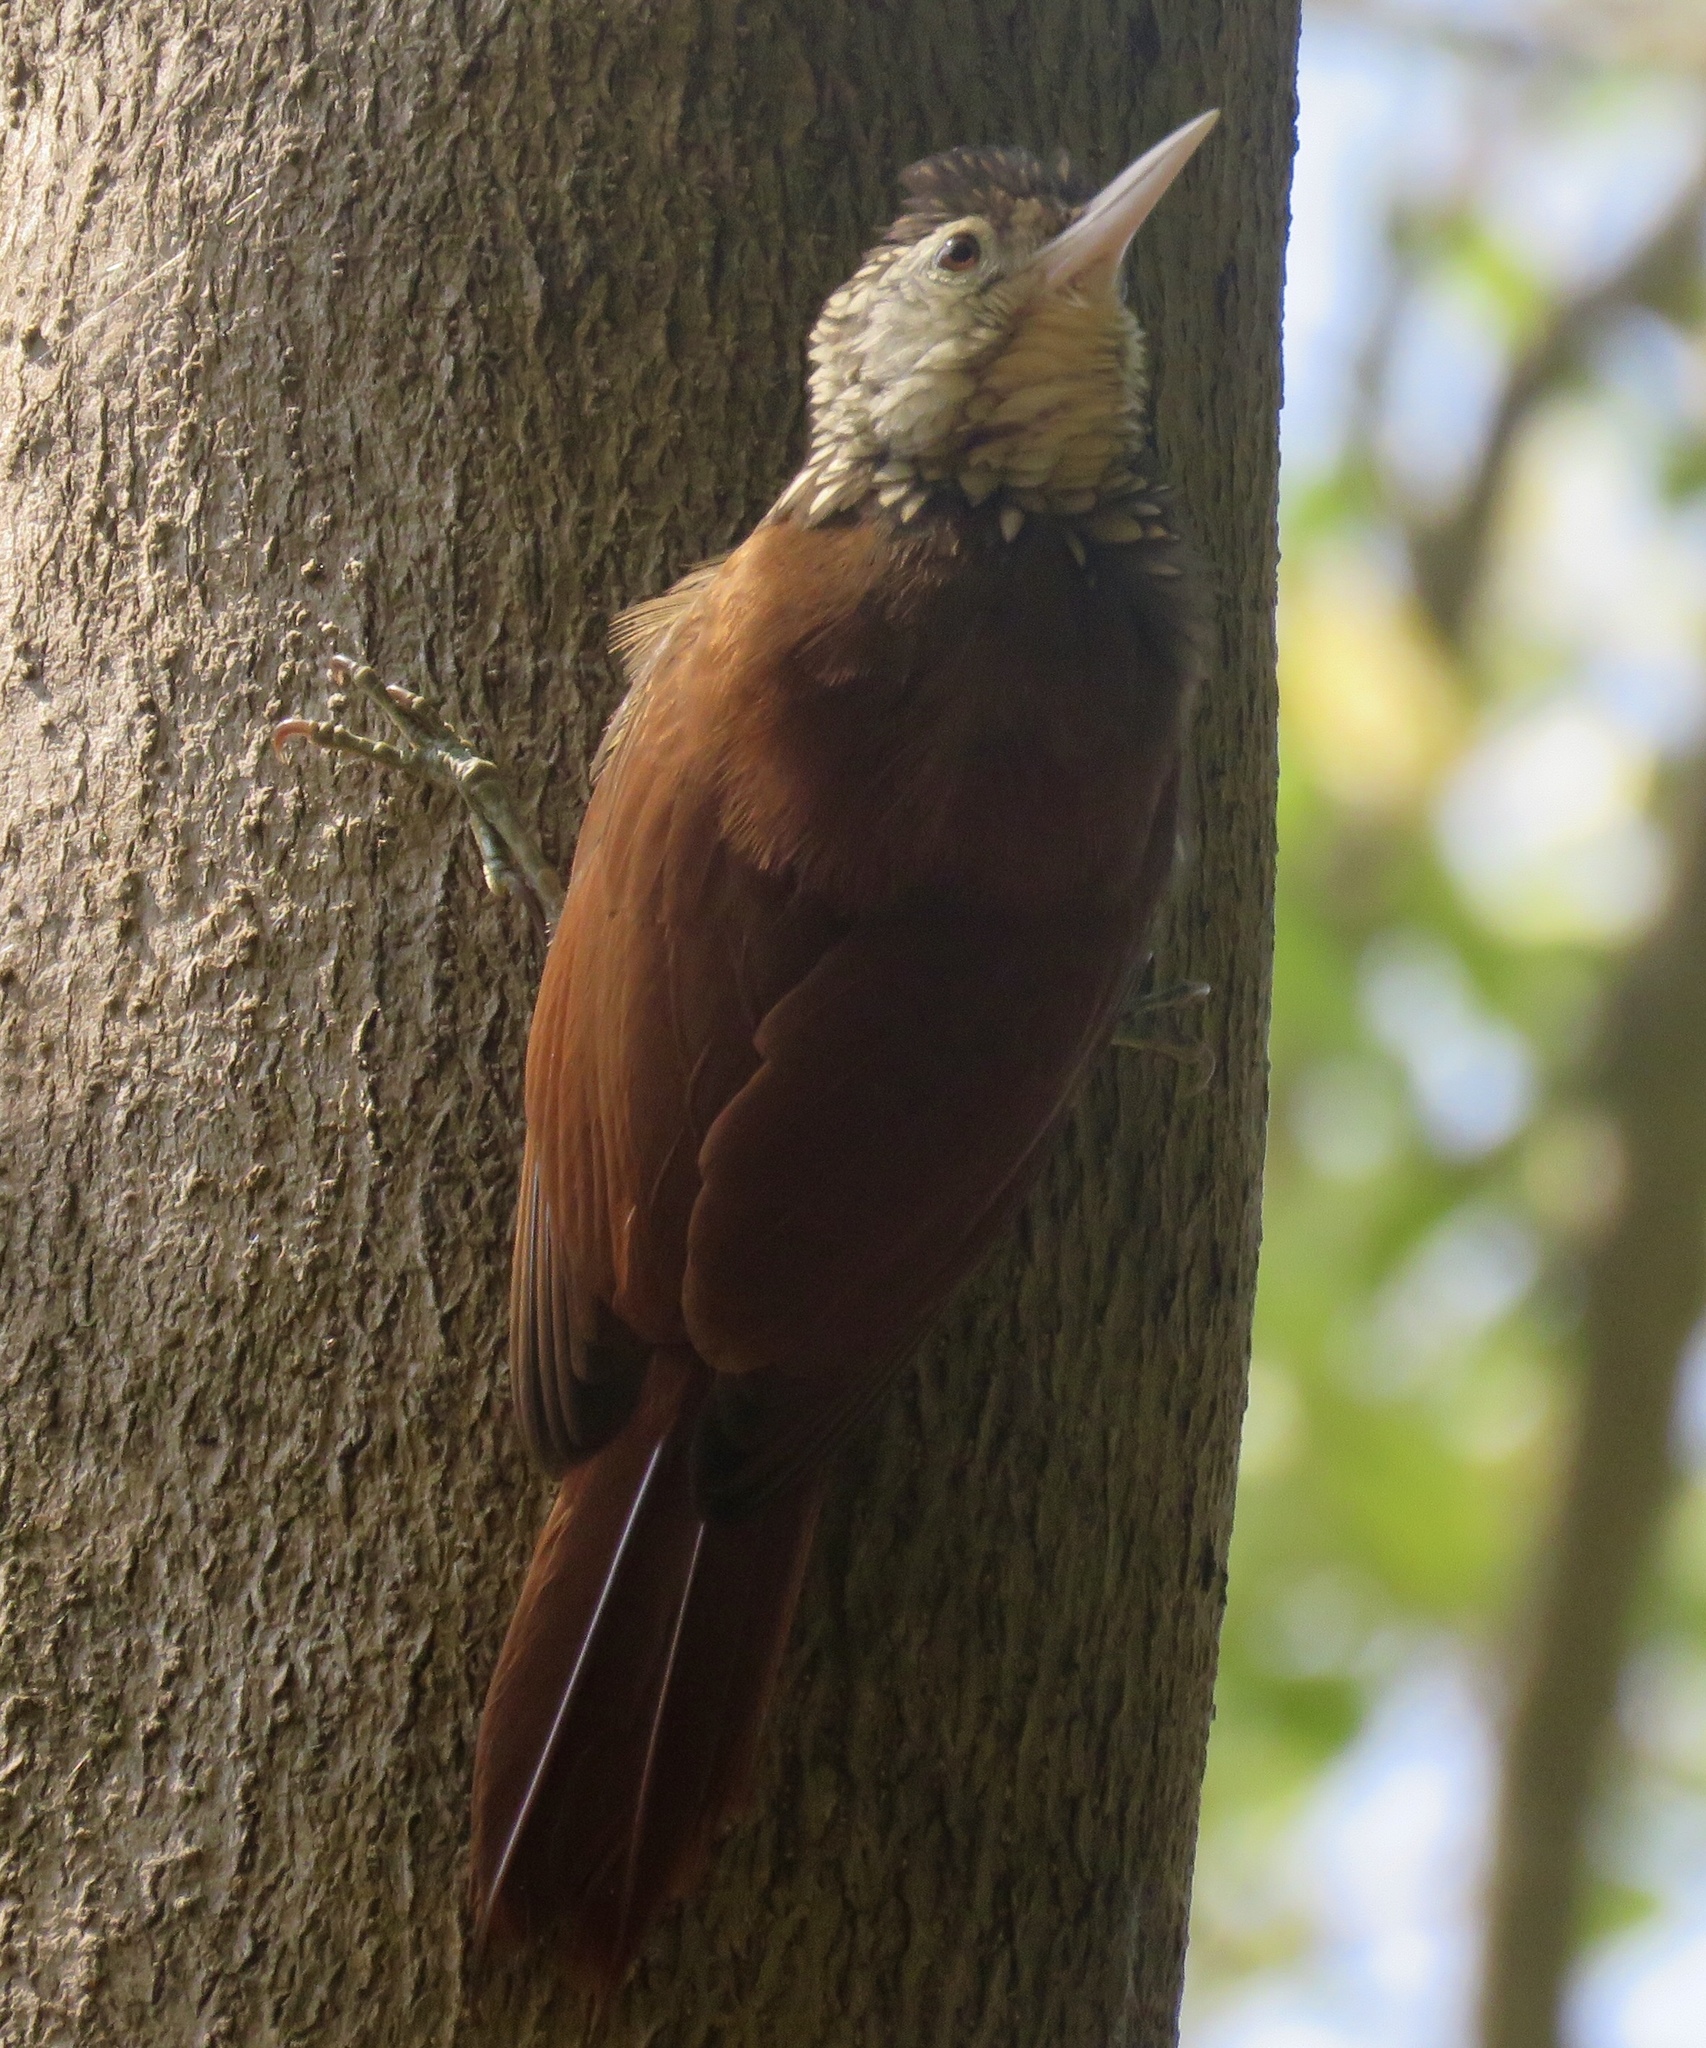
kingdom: Animalia
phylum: Chordata
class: Aves
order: Passeriformes
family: Furnariidae
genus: Xiphorhynchus
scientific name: Xiphorhynchus picus
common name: Straight-billed woodcreeper
